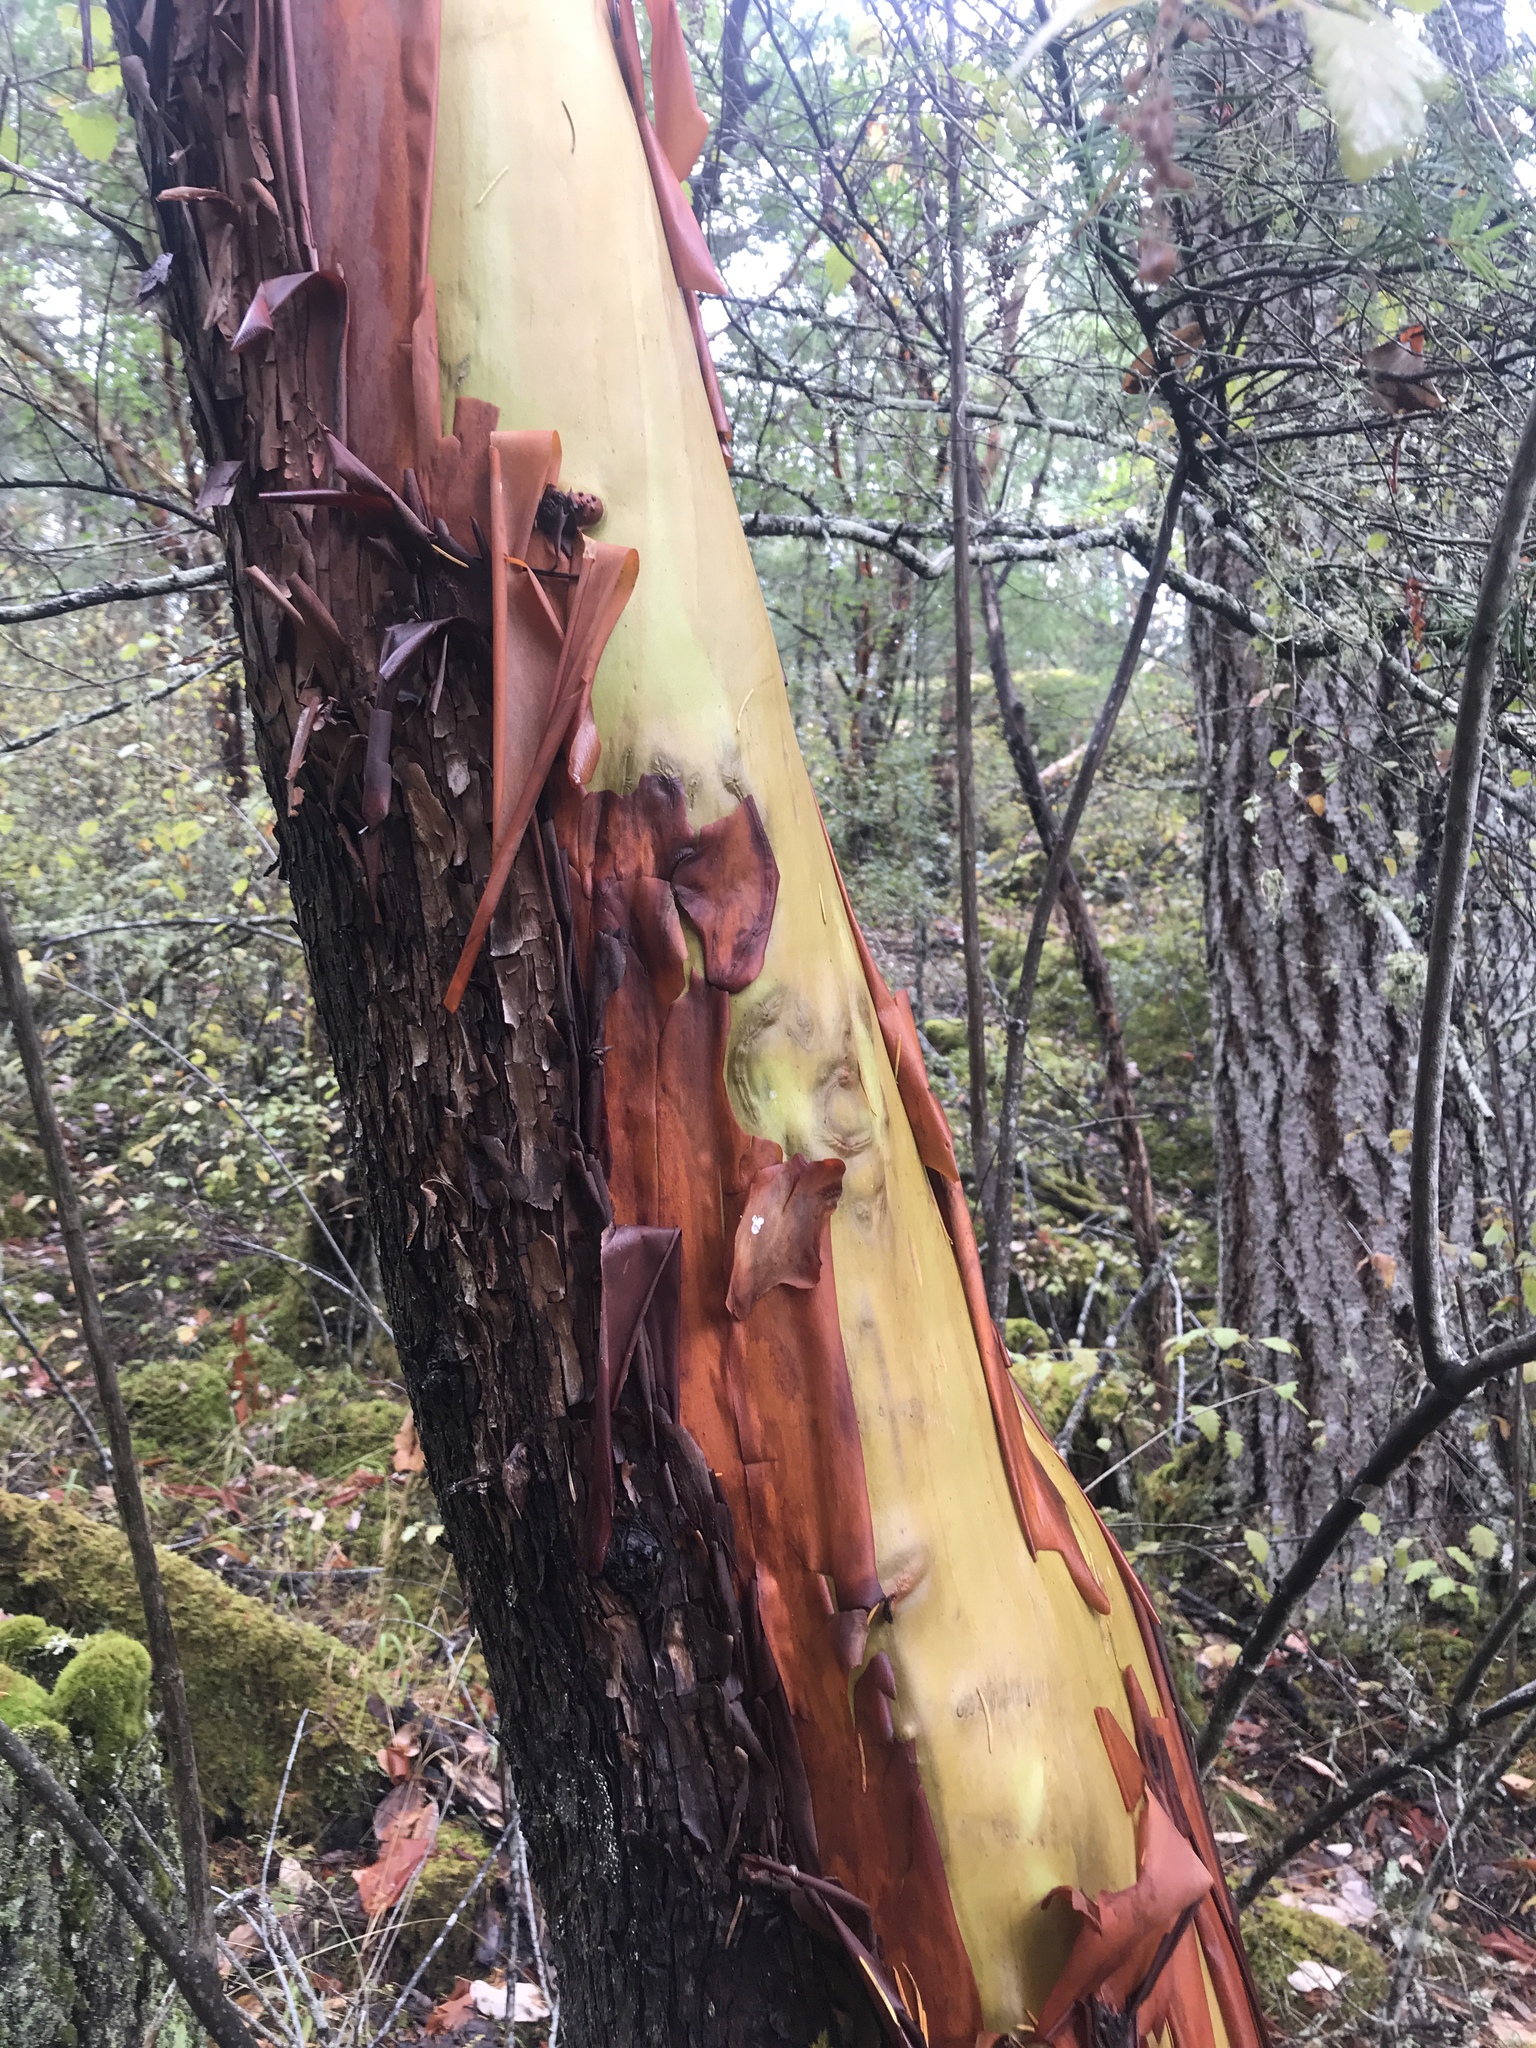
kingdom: Plantae
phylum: Tracheophyta
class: Magnoliopsida
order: Ericales
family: Ericaceae
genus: Arbutus
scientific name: Arbutus menziesii
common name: Pacific madrone
